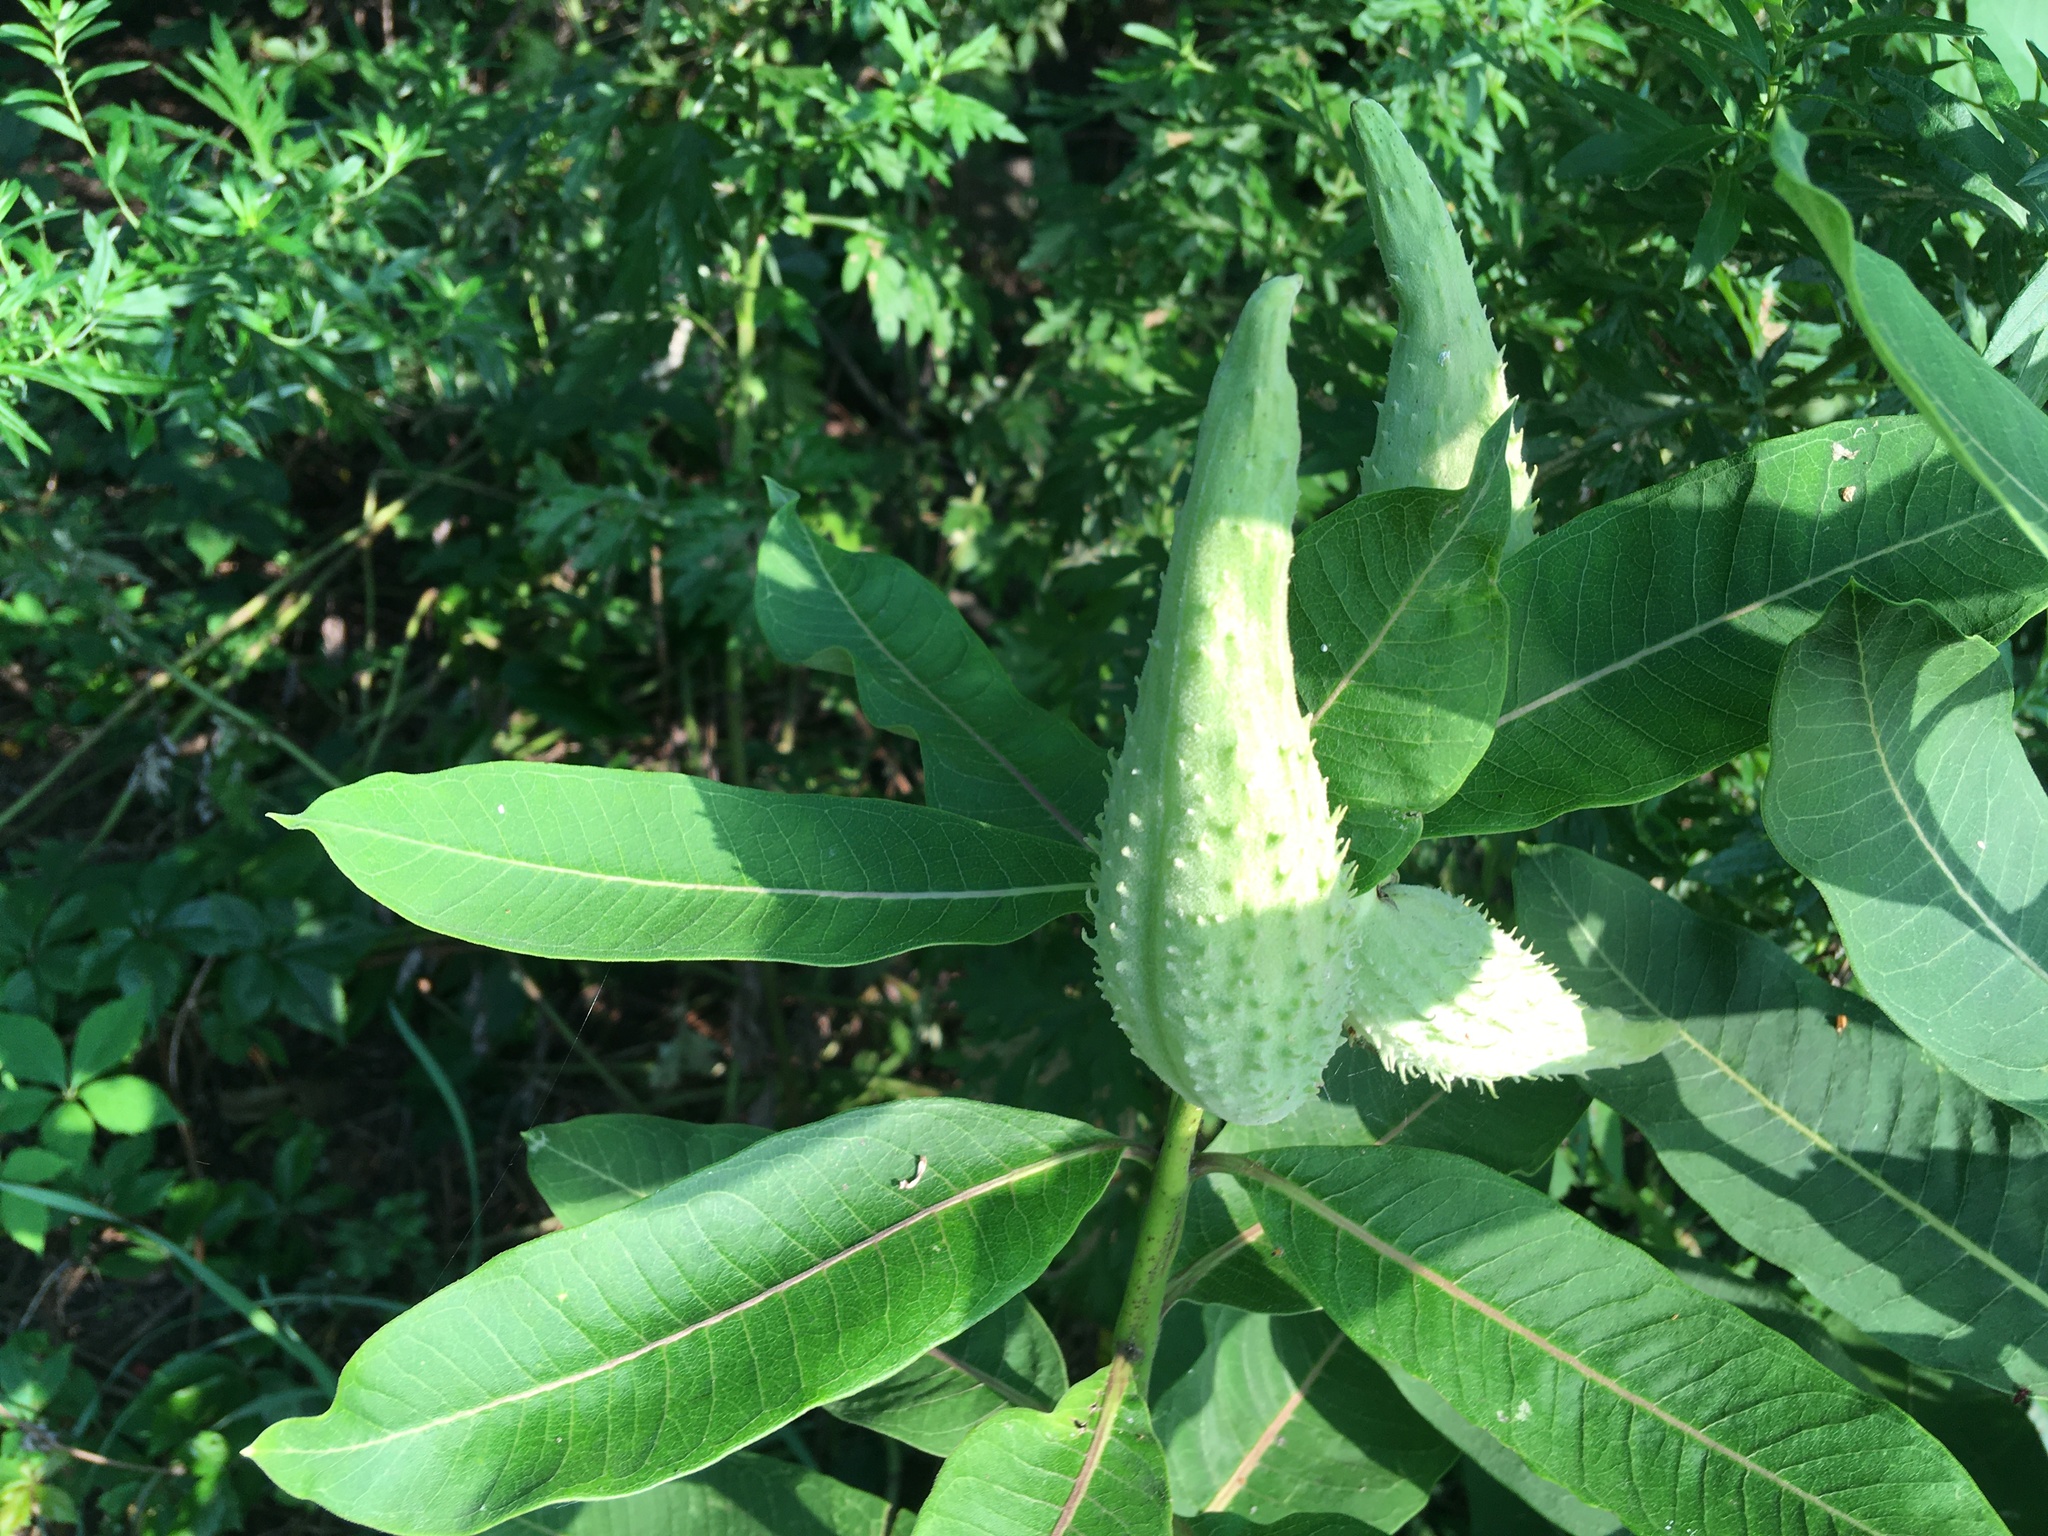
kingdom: Plantae
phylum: Tracheophyta
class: Magnoliopsida
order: Gentianales
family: Apocynaceae
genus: Asclepias
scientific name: Asclepias syriaca
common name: Common milkweed
